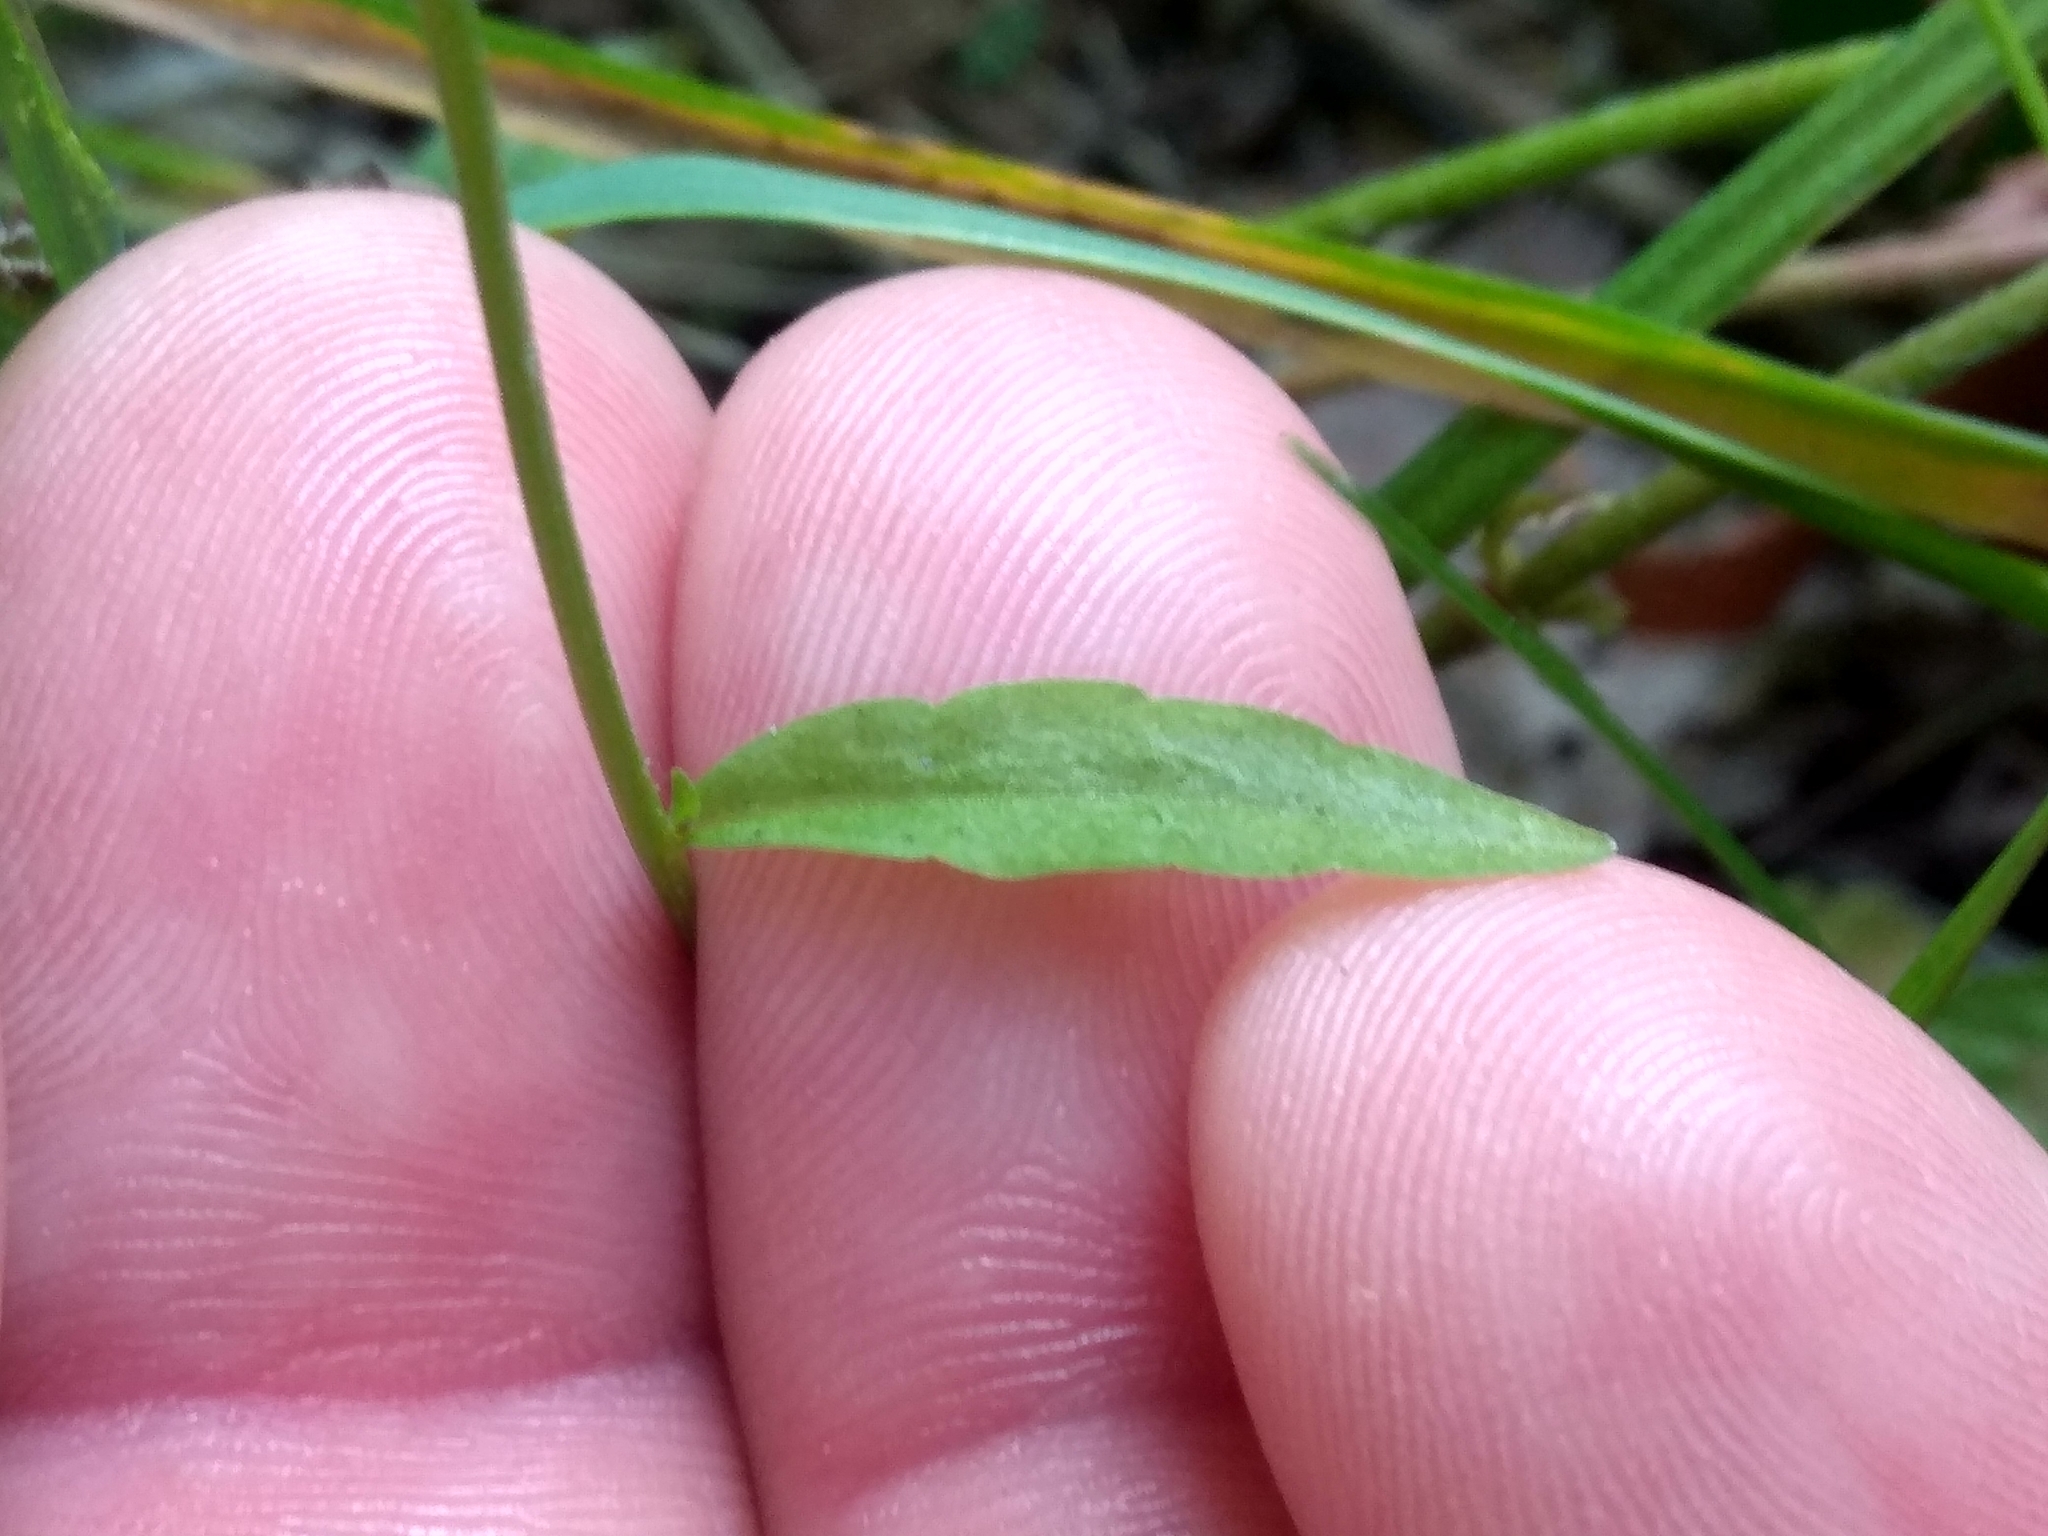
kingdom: Plantae
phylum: Tracheophyta
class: Magnoliopsida
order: Asterales
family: Campanulaceae
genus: Campanula
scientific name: Campanula patula
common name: Spreading bellflower
